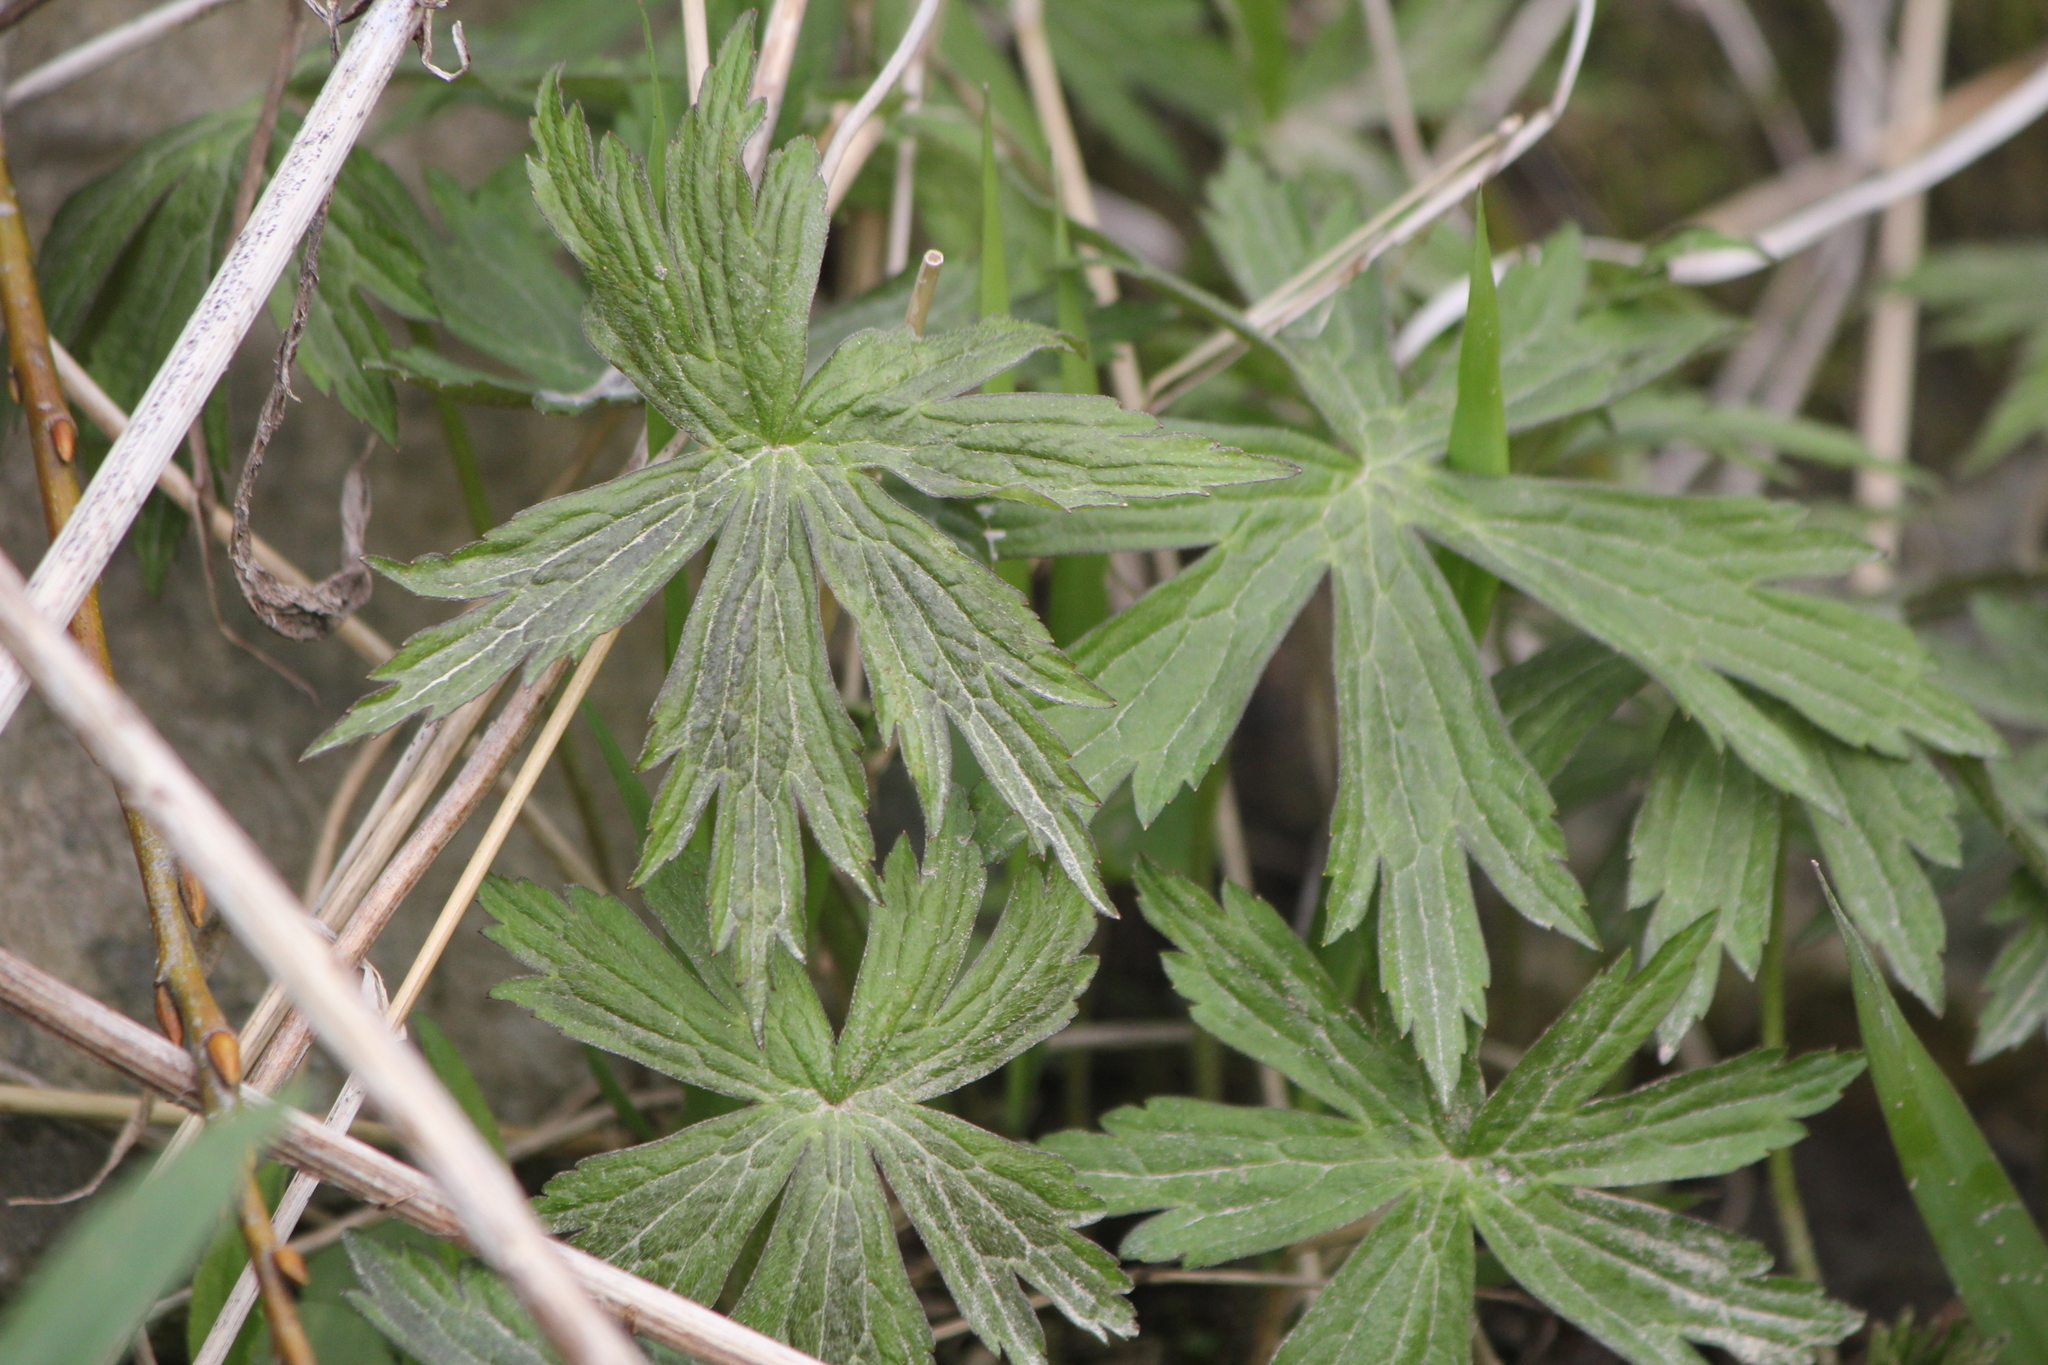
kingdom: Plantae
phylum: Tracheophyta
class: Magnoliopsida
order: Ranunculales
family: Ranunculaceae
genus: Anemonastrum
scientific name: Anemonastrum canadense
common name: Canada anemone
